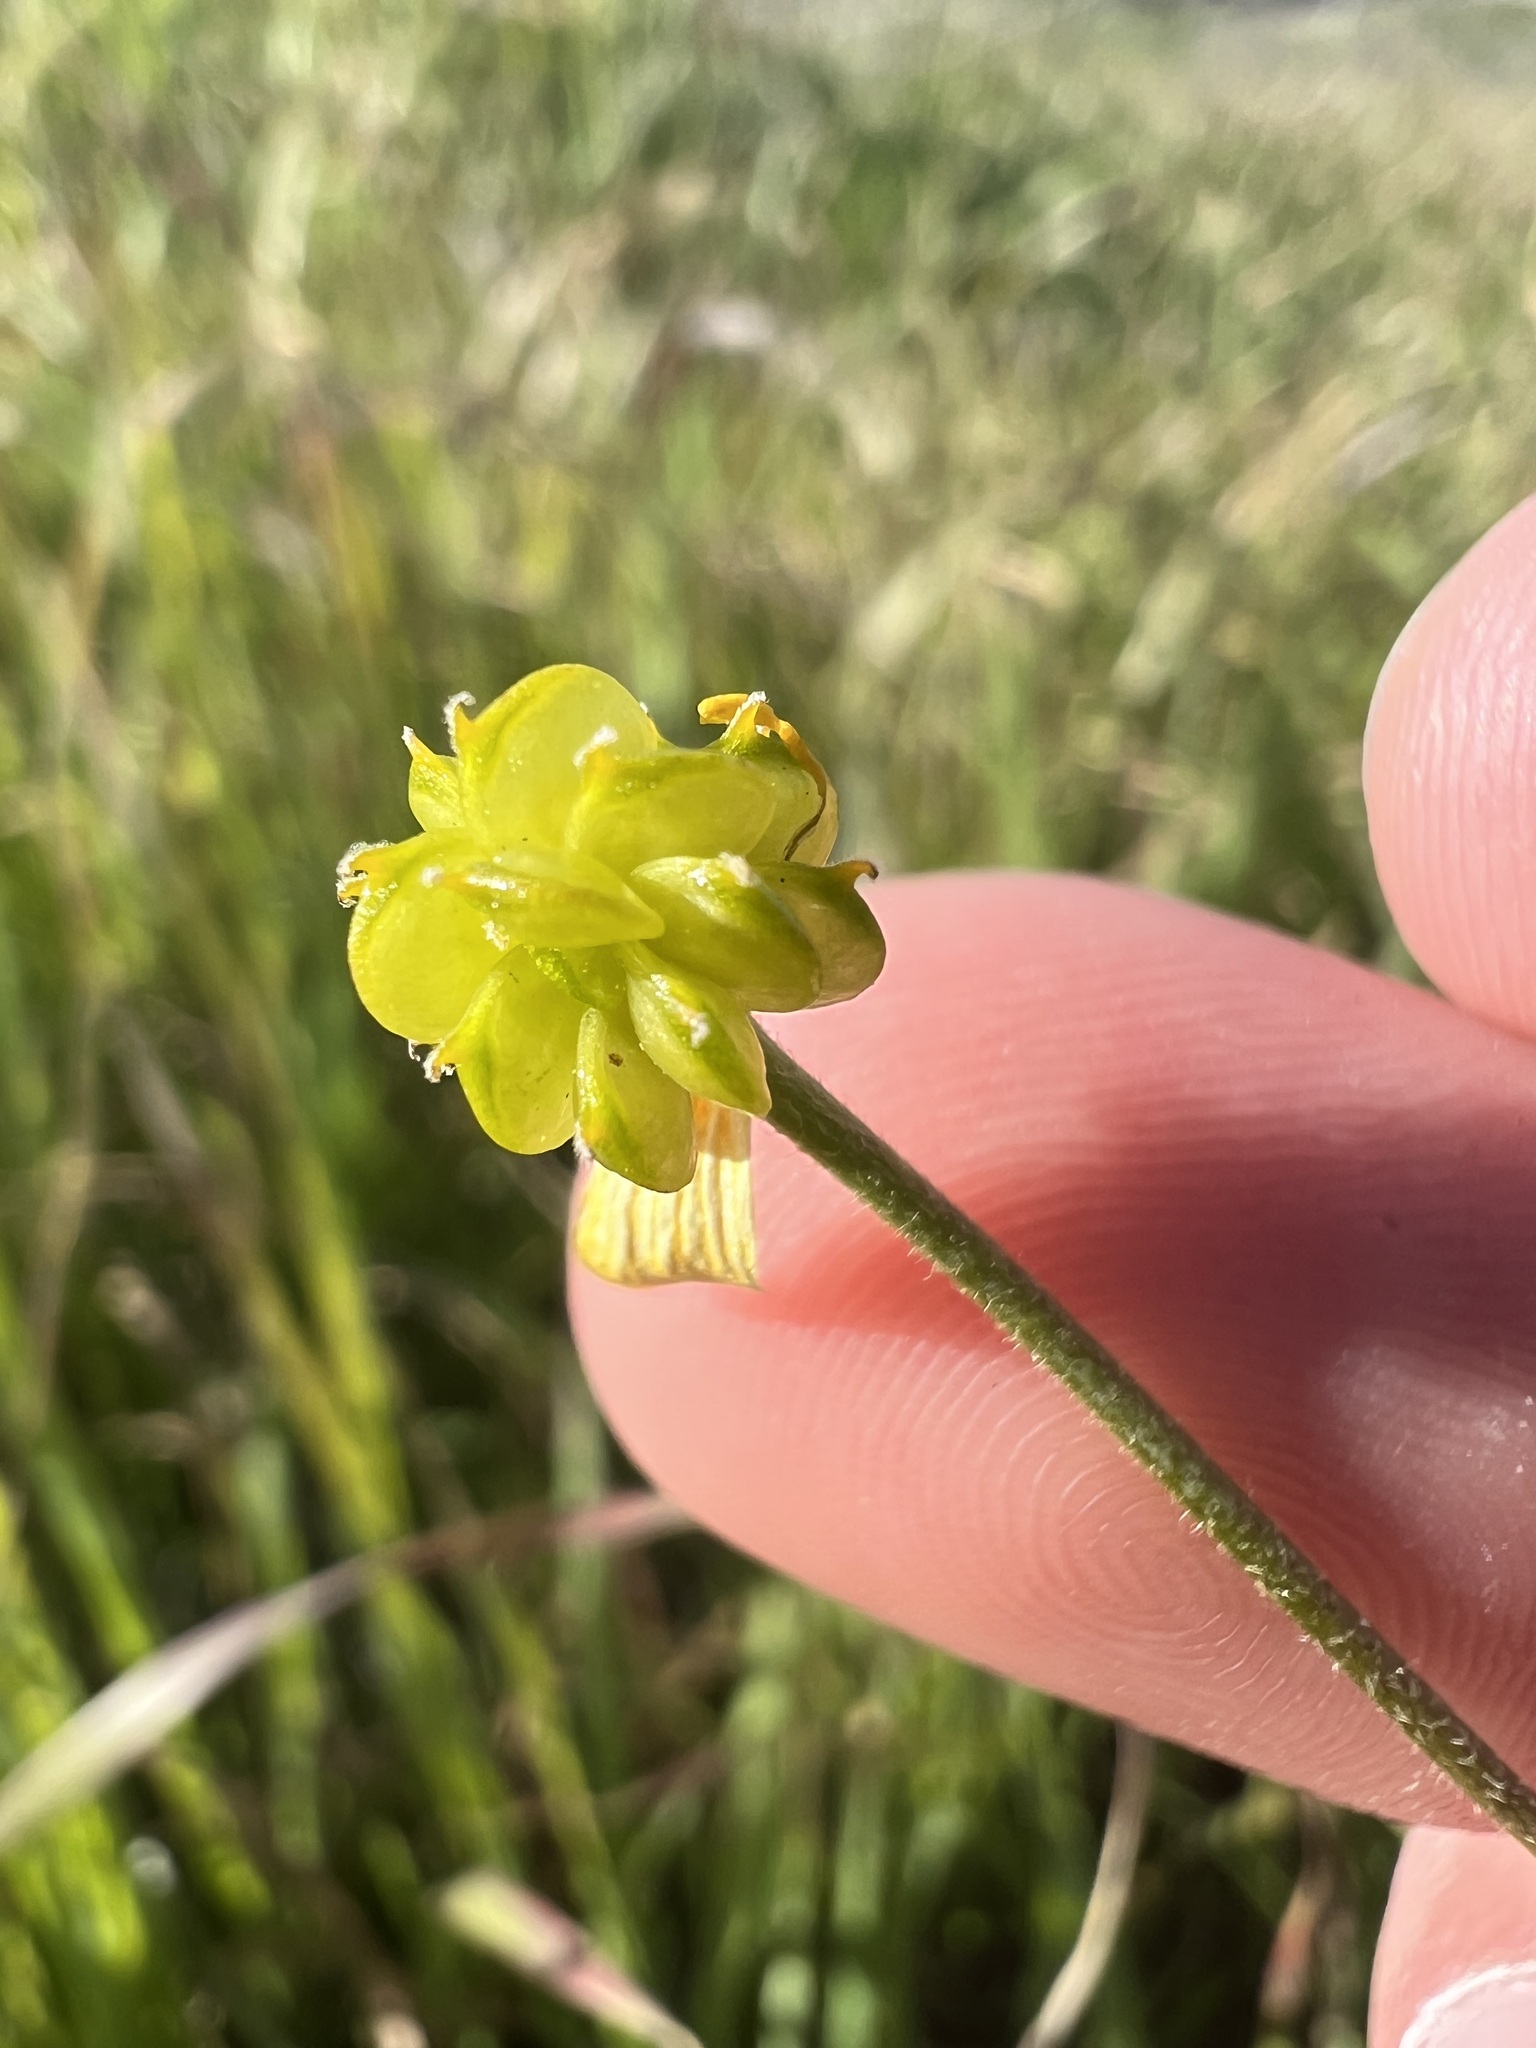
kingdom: Plantae
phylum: Tracheophyta
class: Magnoliopsida
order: Ranunculales
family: Ranunculaceae
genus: Ranunculus
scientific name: Ranunculus californicus
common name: California buttercup
